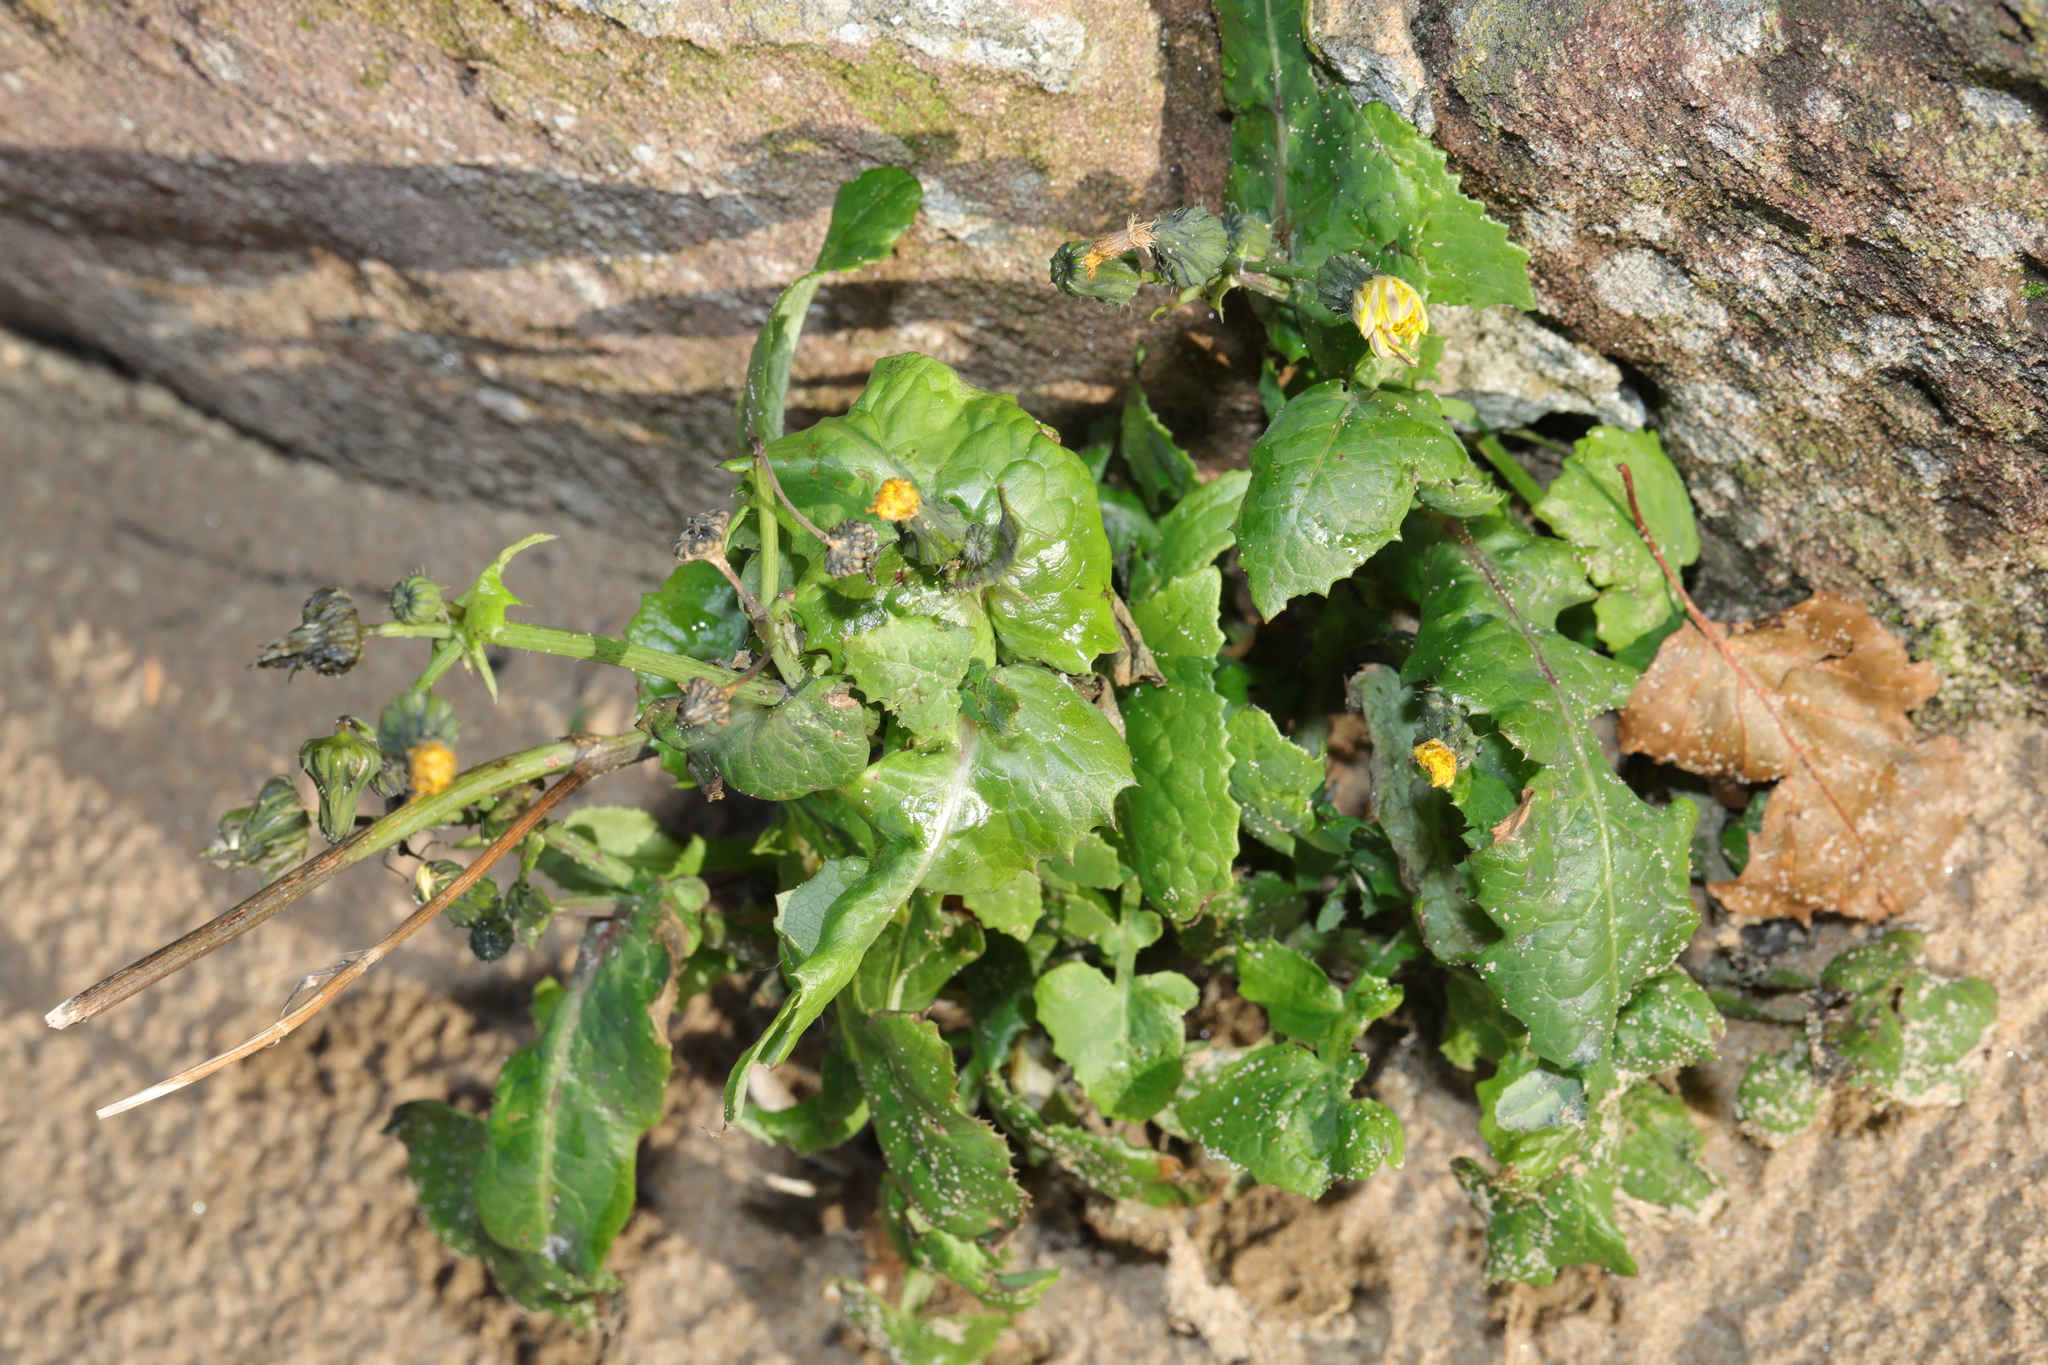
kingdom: Plantae
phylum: Tracheophyta
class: Magnoliopsida
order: Asterales
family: Asteraceae
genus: Sonchus
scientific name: Sonchus oleraceus
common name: Common sowthistle
